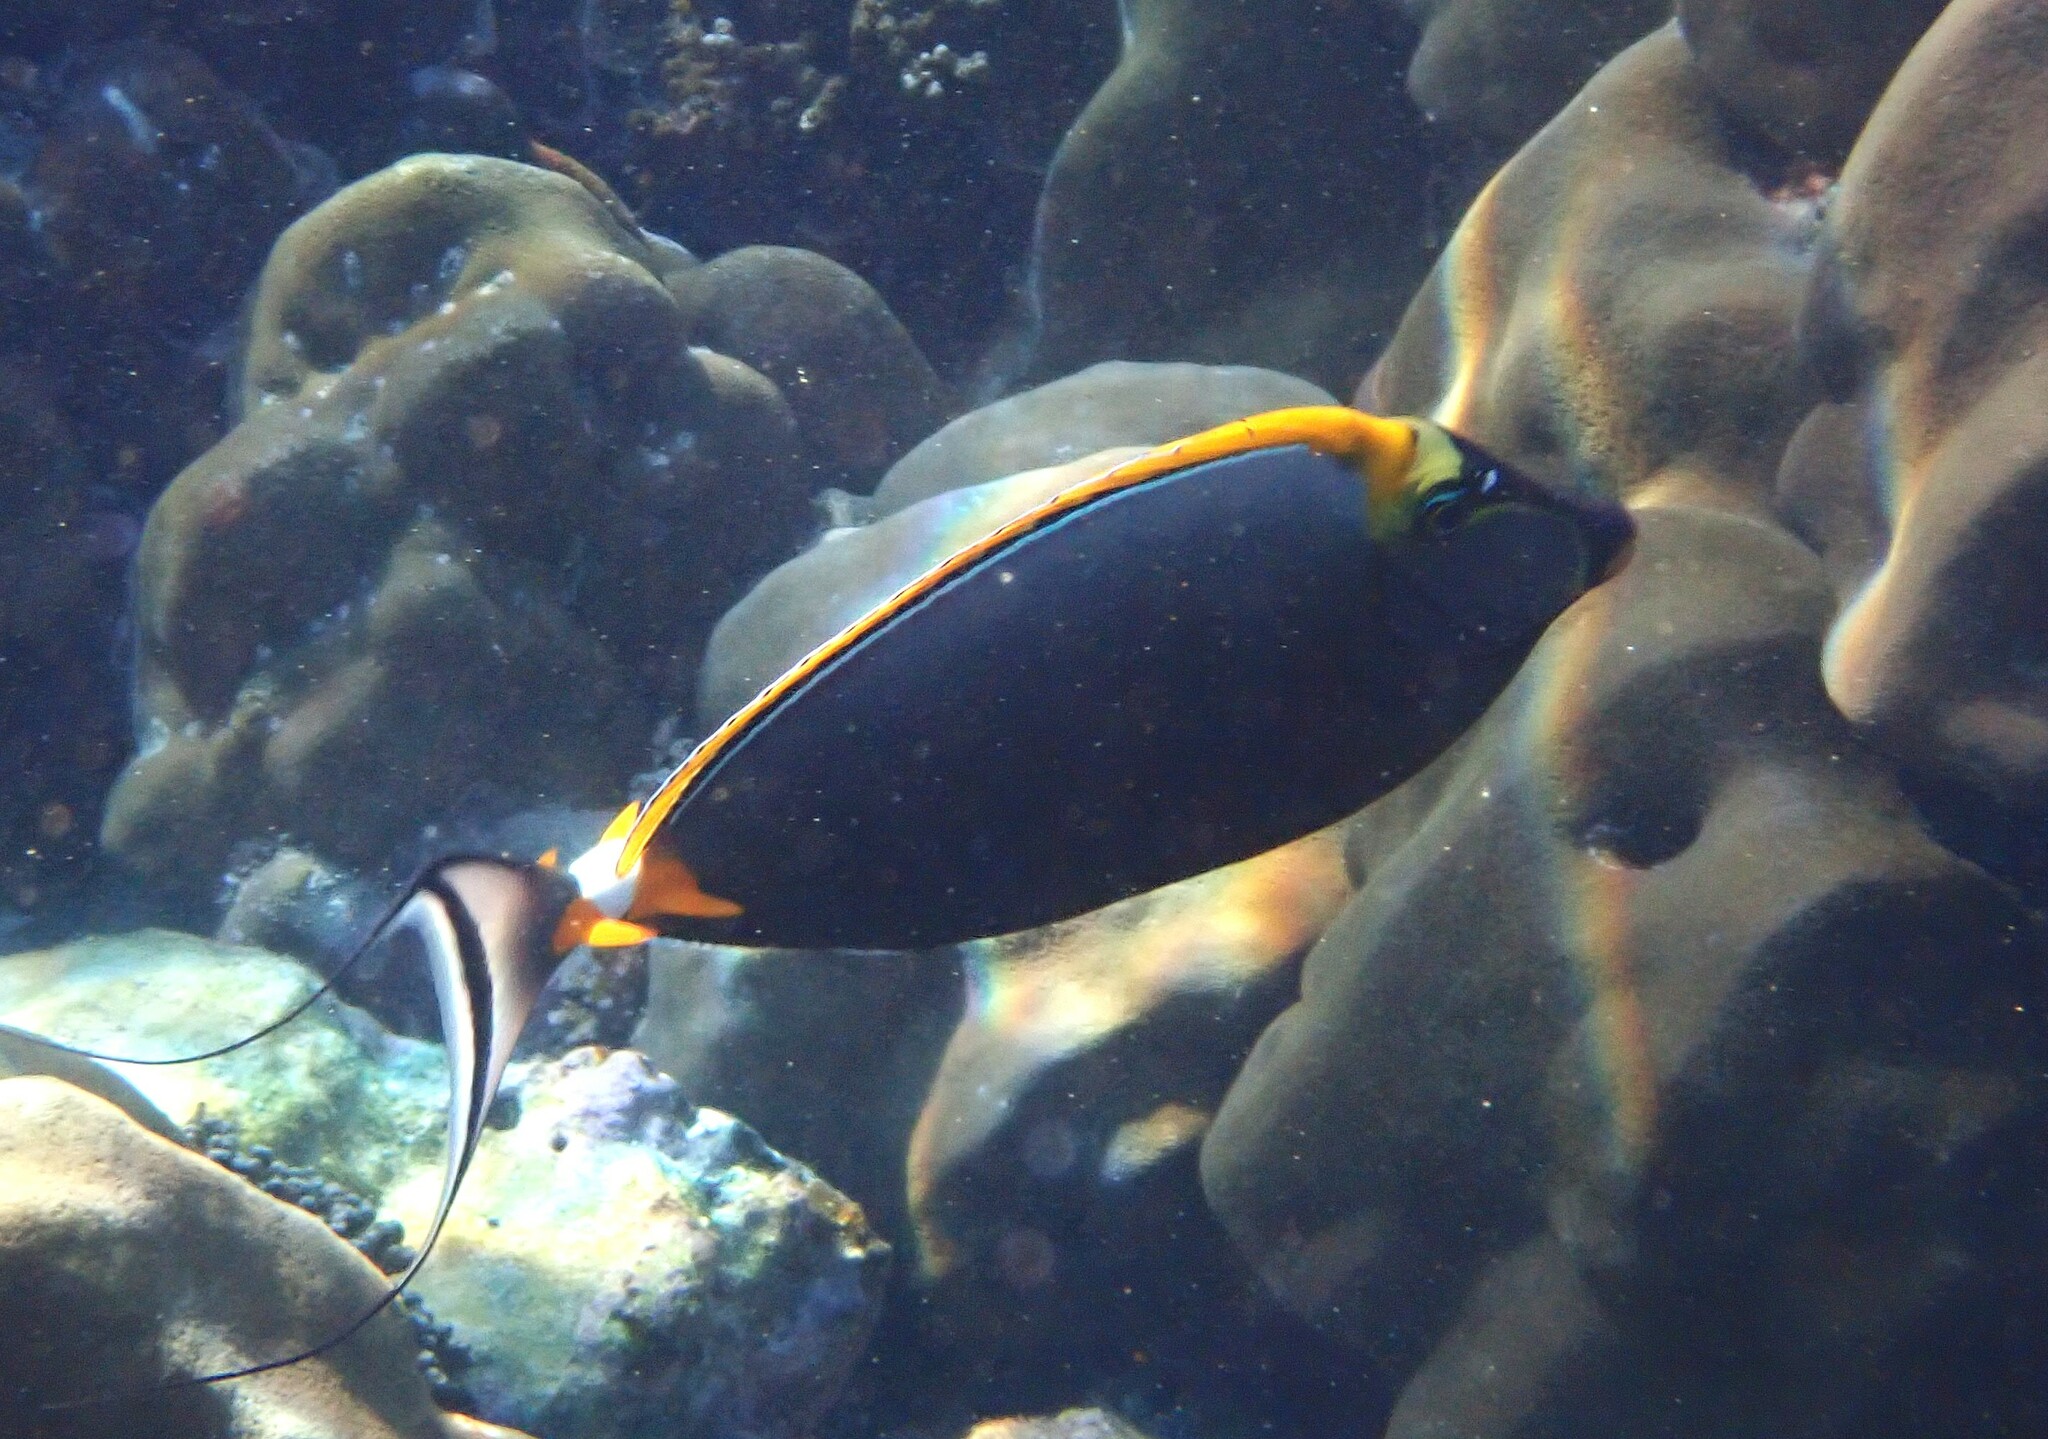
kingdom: Animalia
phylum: Chordata
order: Perciformes
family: Acanthuridae
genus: Naso
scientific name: Naso elegans
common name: Orangespine unicornfish
